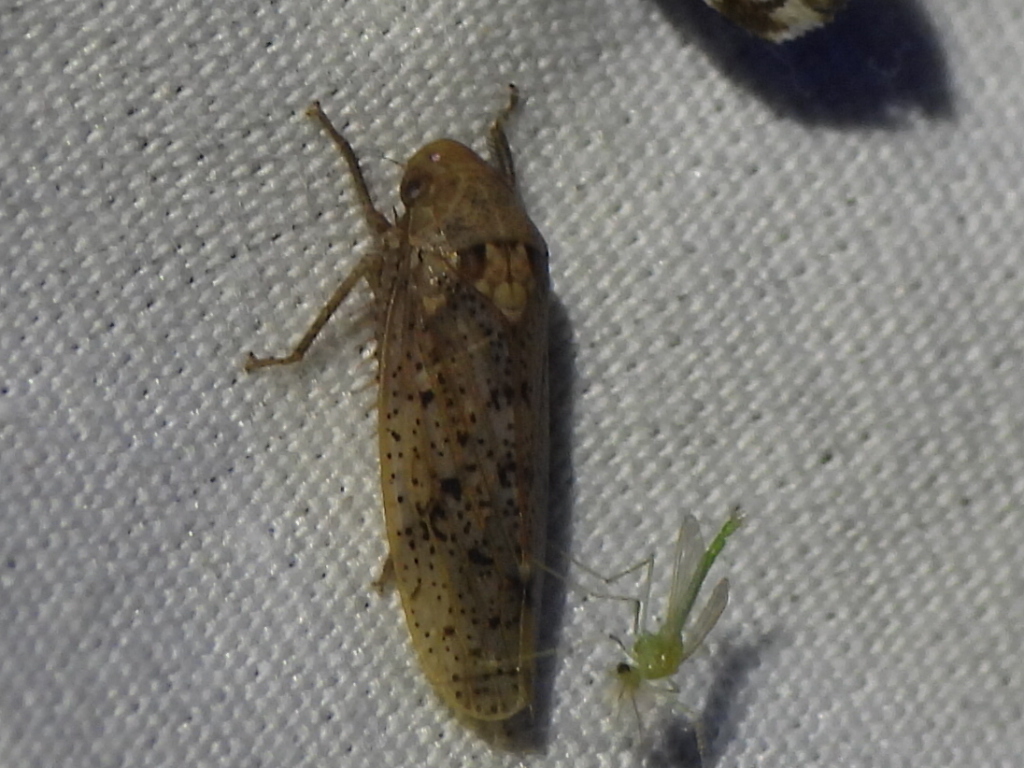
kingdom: Animalia
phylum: Arthropoda
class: Insecta
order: Hemiptera
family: Cicadellidae
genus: Ponana
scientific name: Ponana puncticollis
